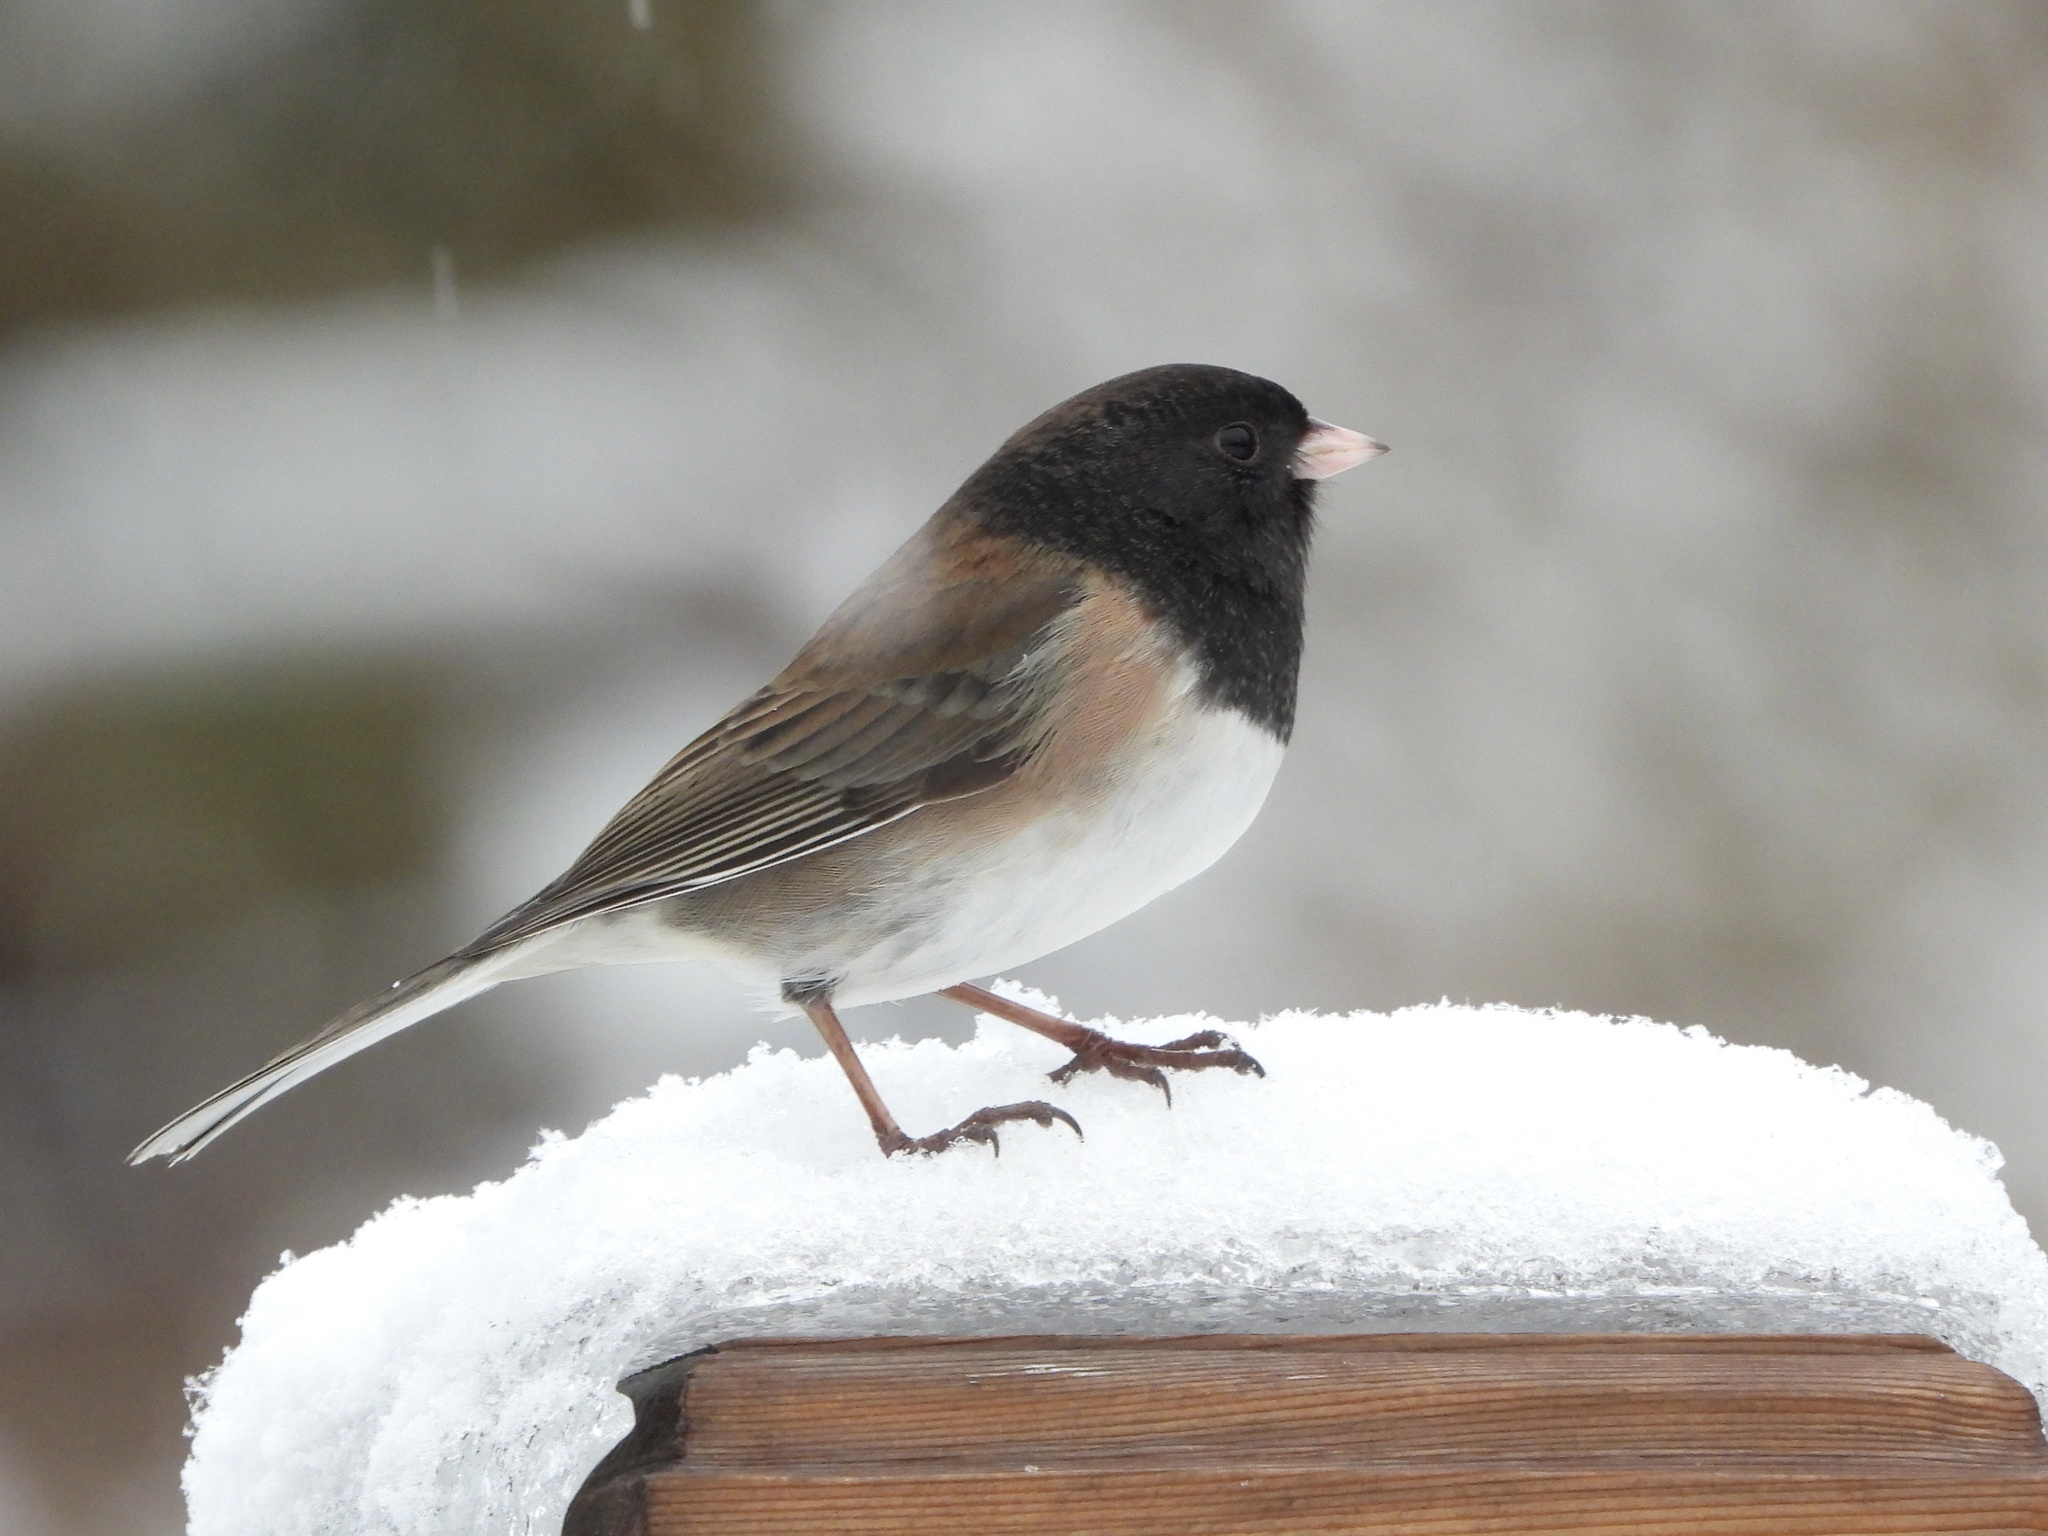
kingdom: Animalia
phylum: Chordata
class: Aves
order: Passeriformes
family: Passerellidae
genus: Junco
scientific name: Junco hyemalis
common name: Dark-eyed junco
